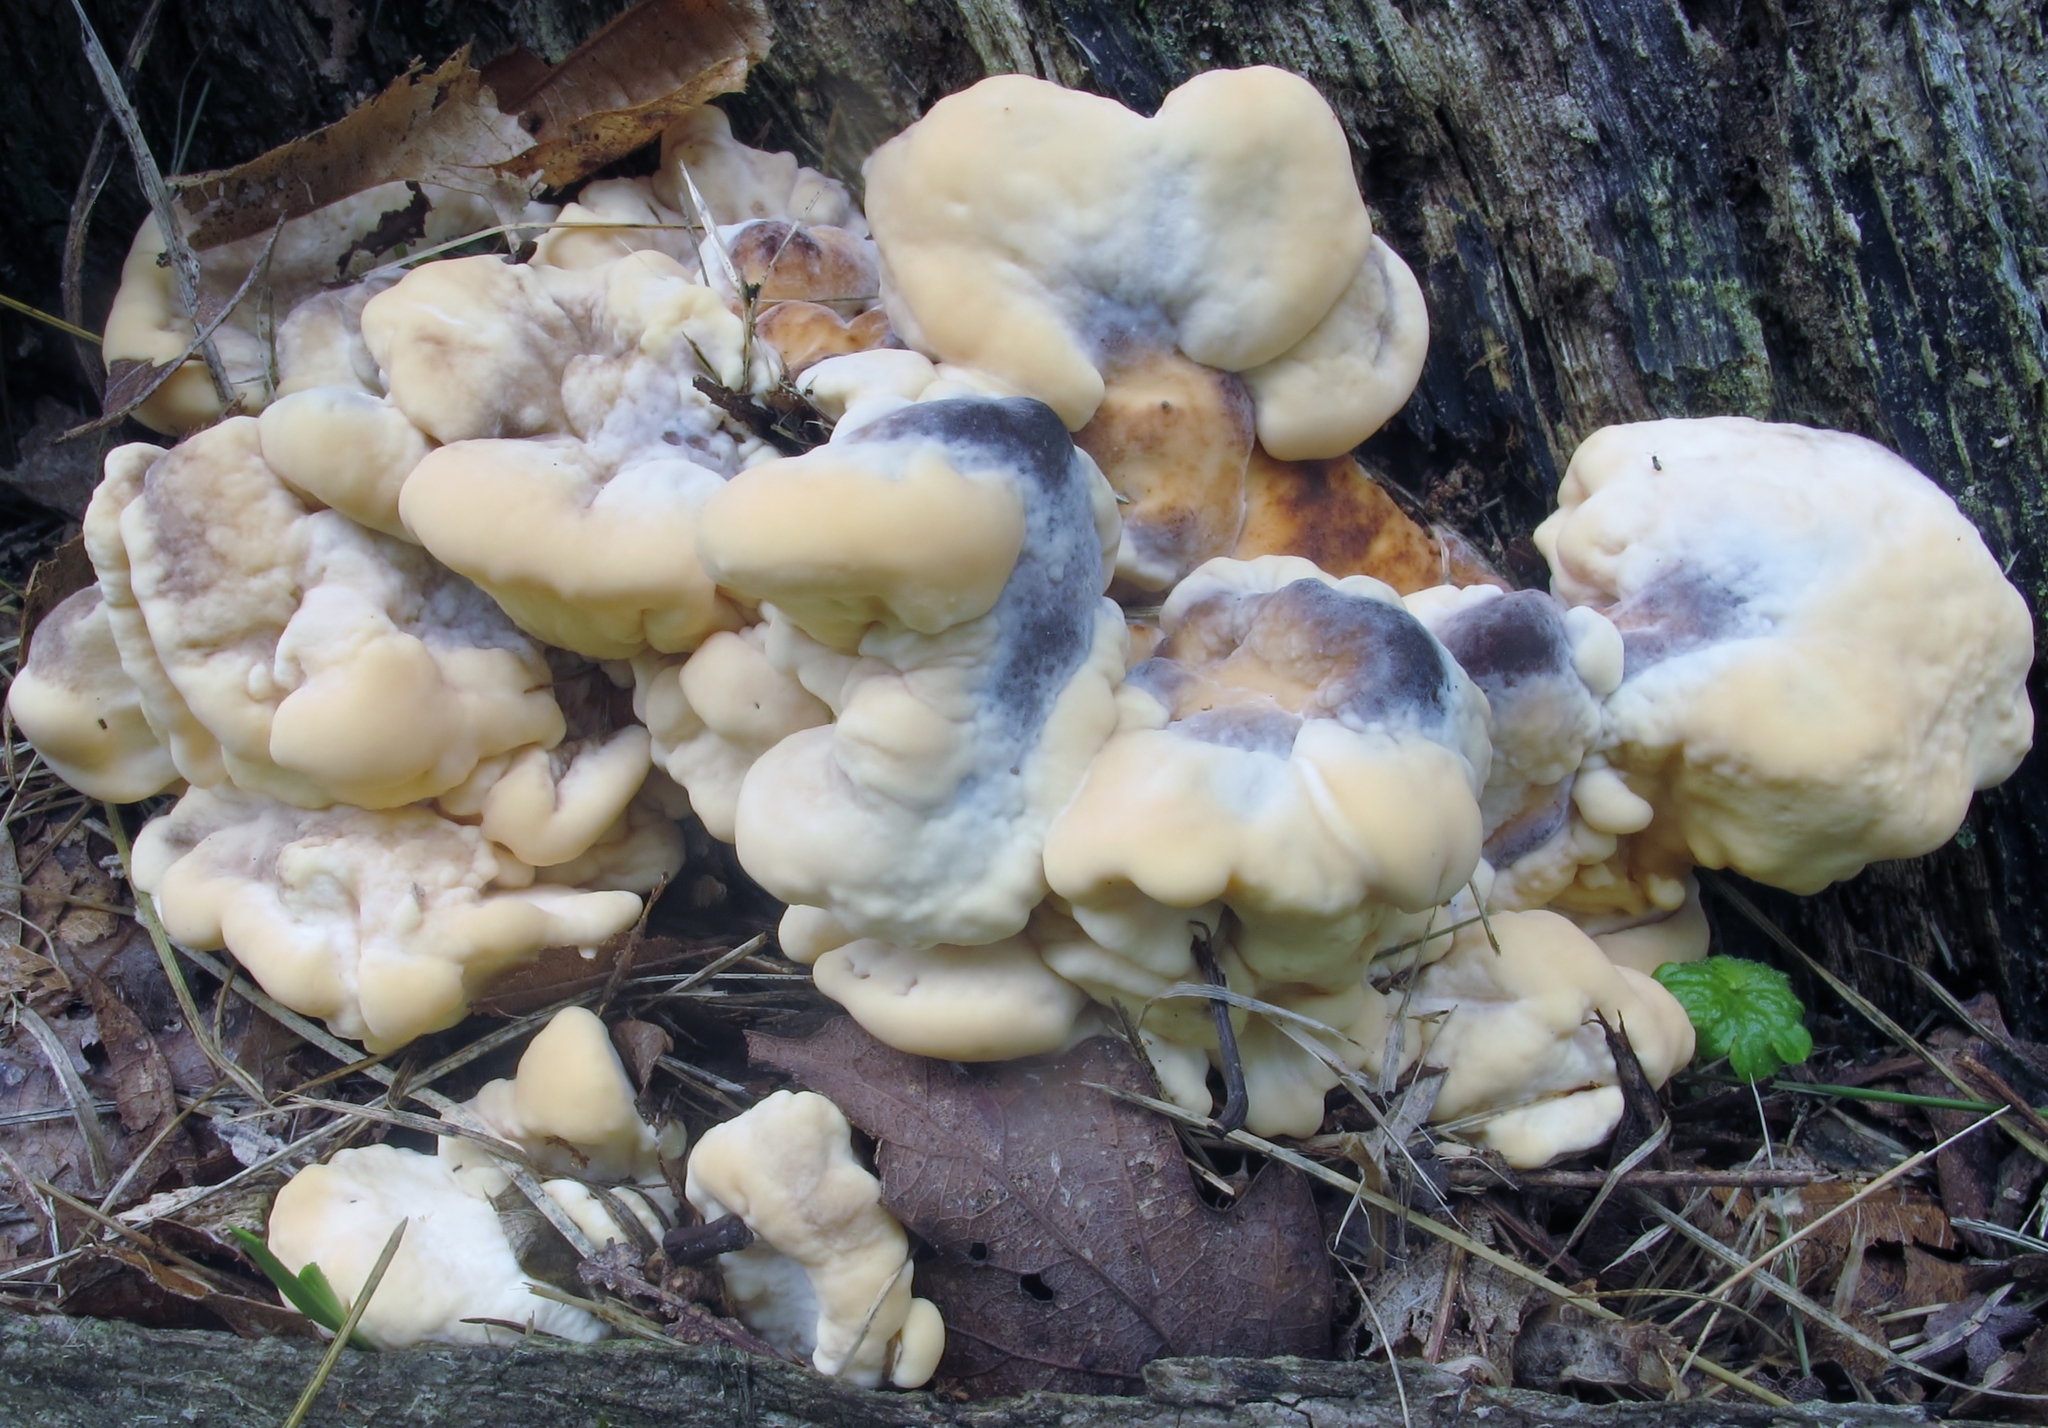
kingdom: Fungi
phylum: Basidiomycota
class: Agaricomycetes
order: Polyporales
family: Meripilaceae
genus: Meripilus
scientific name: Meripilus sumstinei
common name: Black-staining polypore
